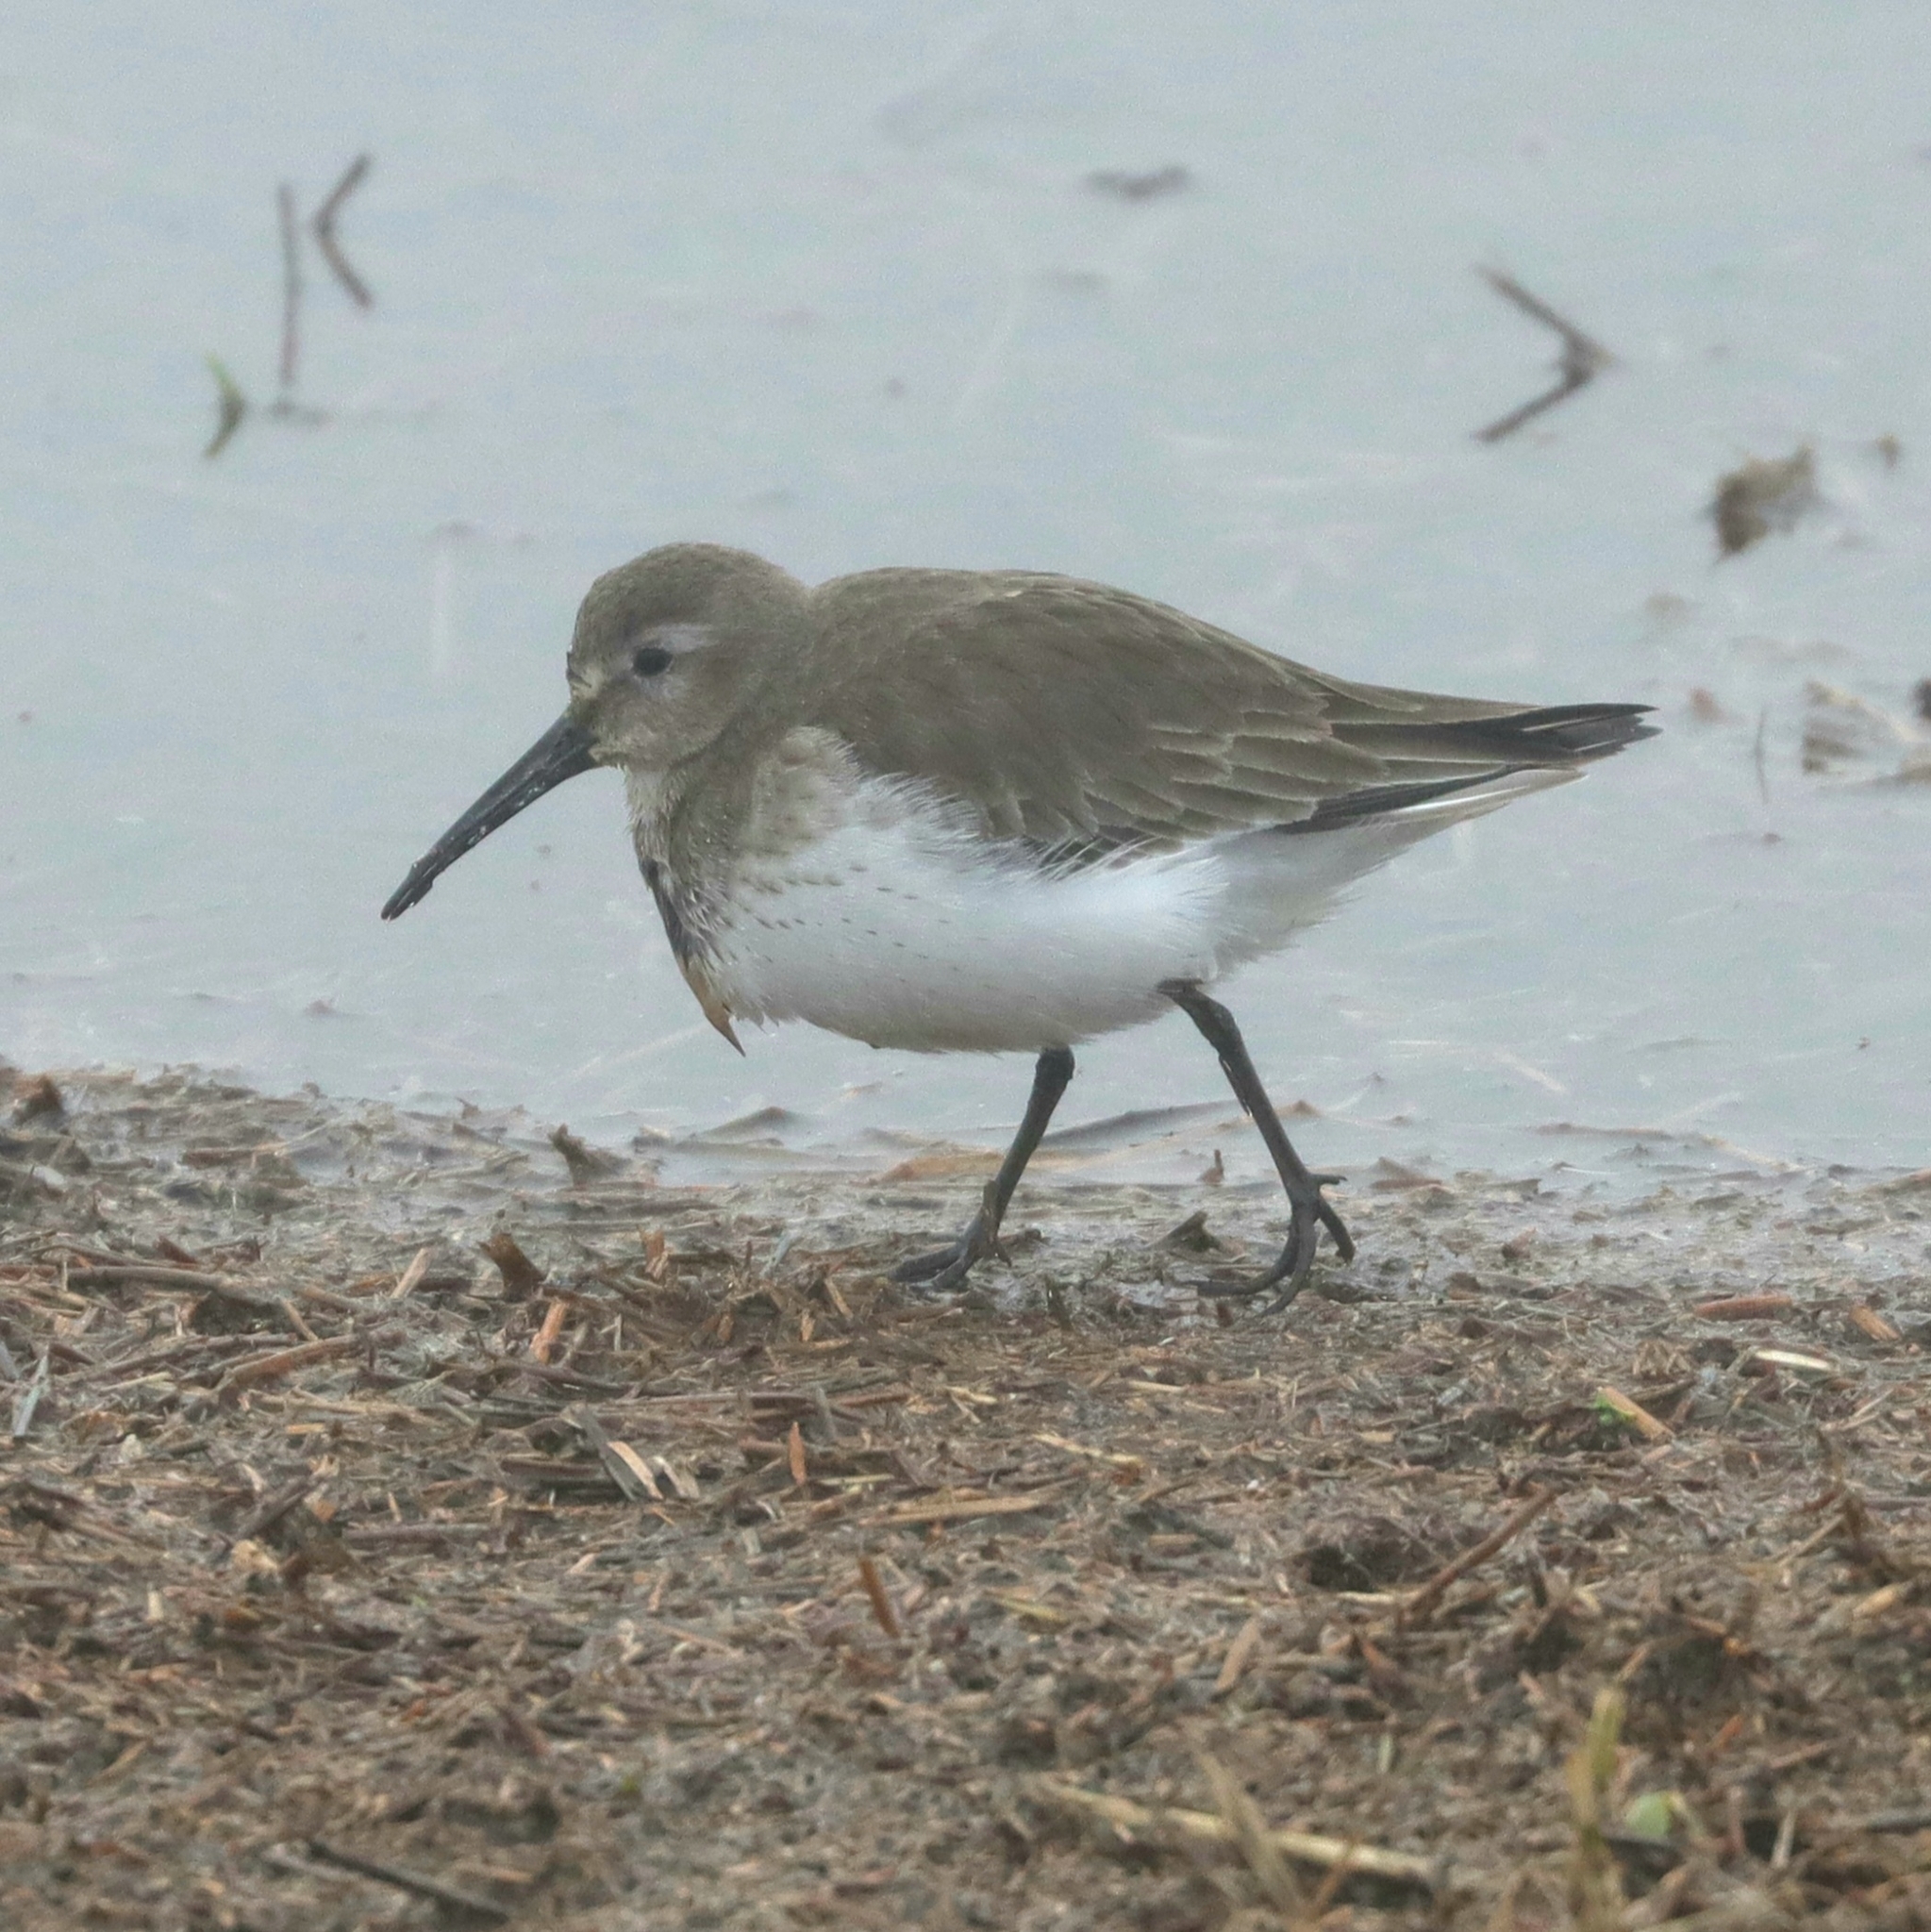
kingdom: Animalia
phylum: Chordata
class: Aves
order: Charadriiformes
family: Scolopacidae
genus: Calidris
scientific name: Calidris alpina
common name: Dunlin
